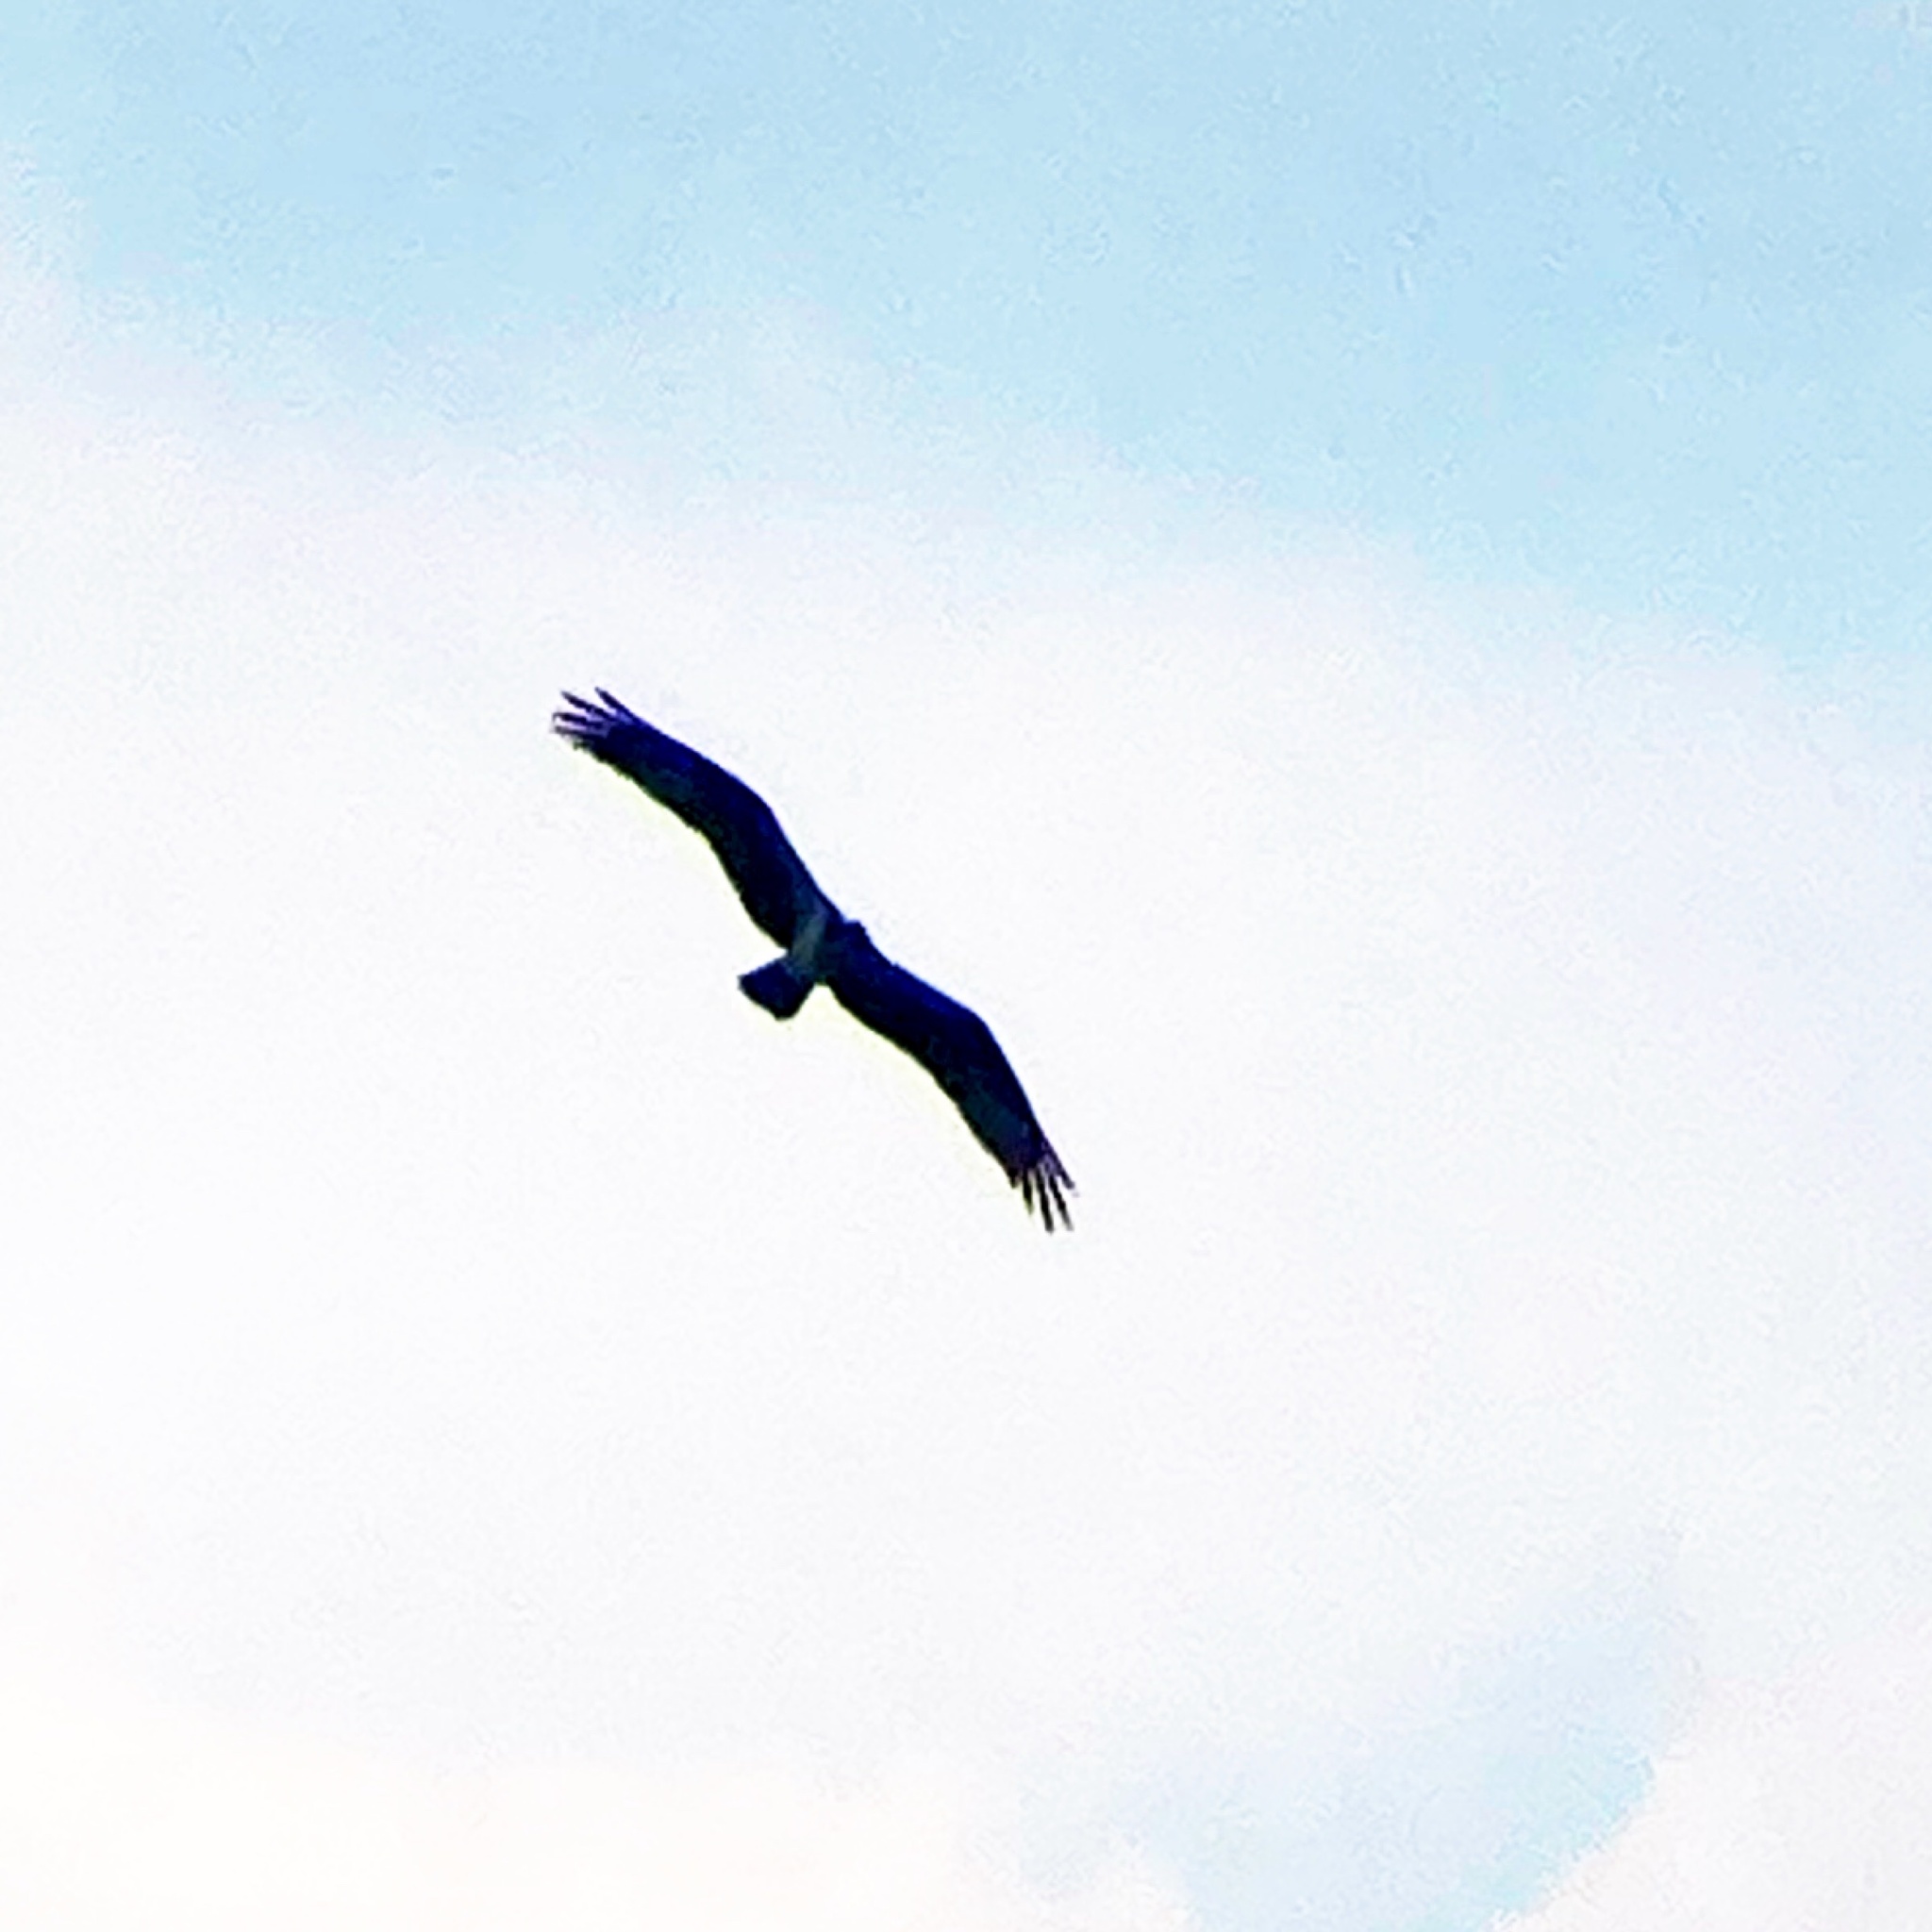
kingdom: Animalia
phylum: Chordata
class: Aves
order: Accipitriformes
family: Pandionidae
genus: Pandion
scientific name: Pandion haliaetus
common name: Osprey
